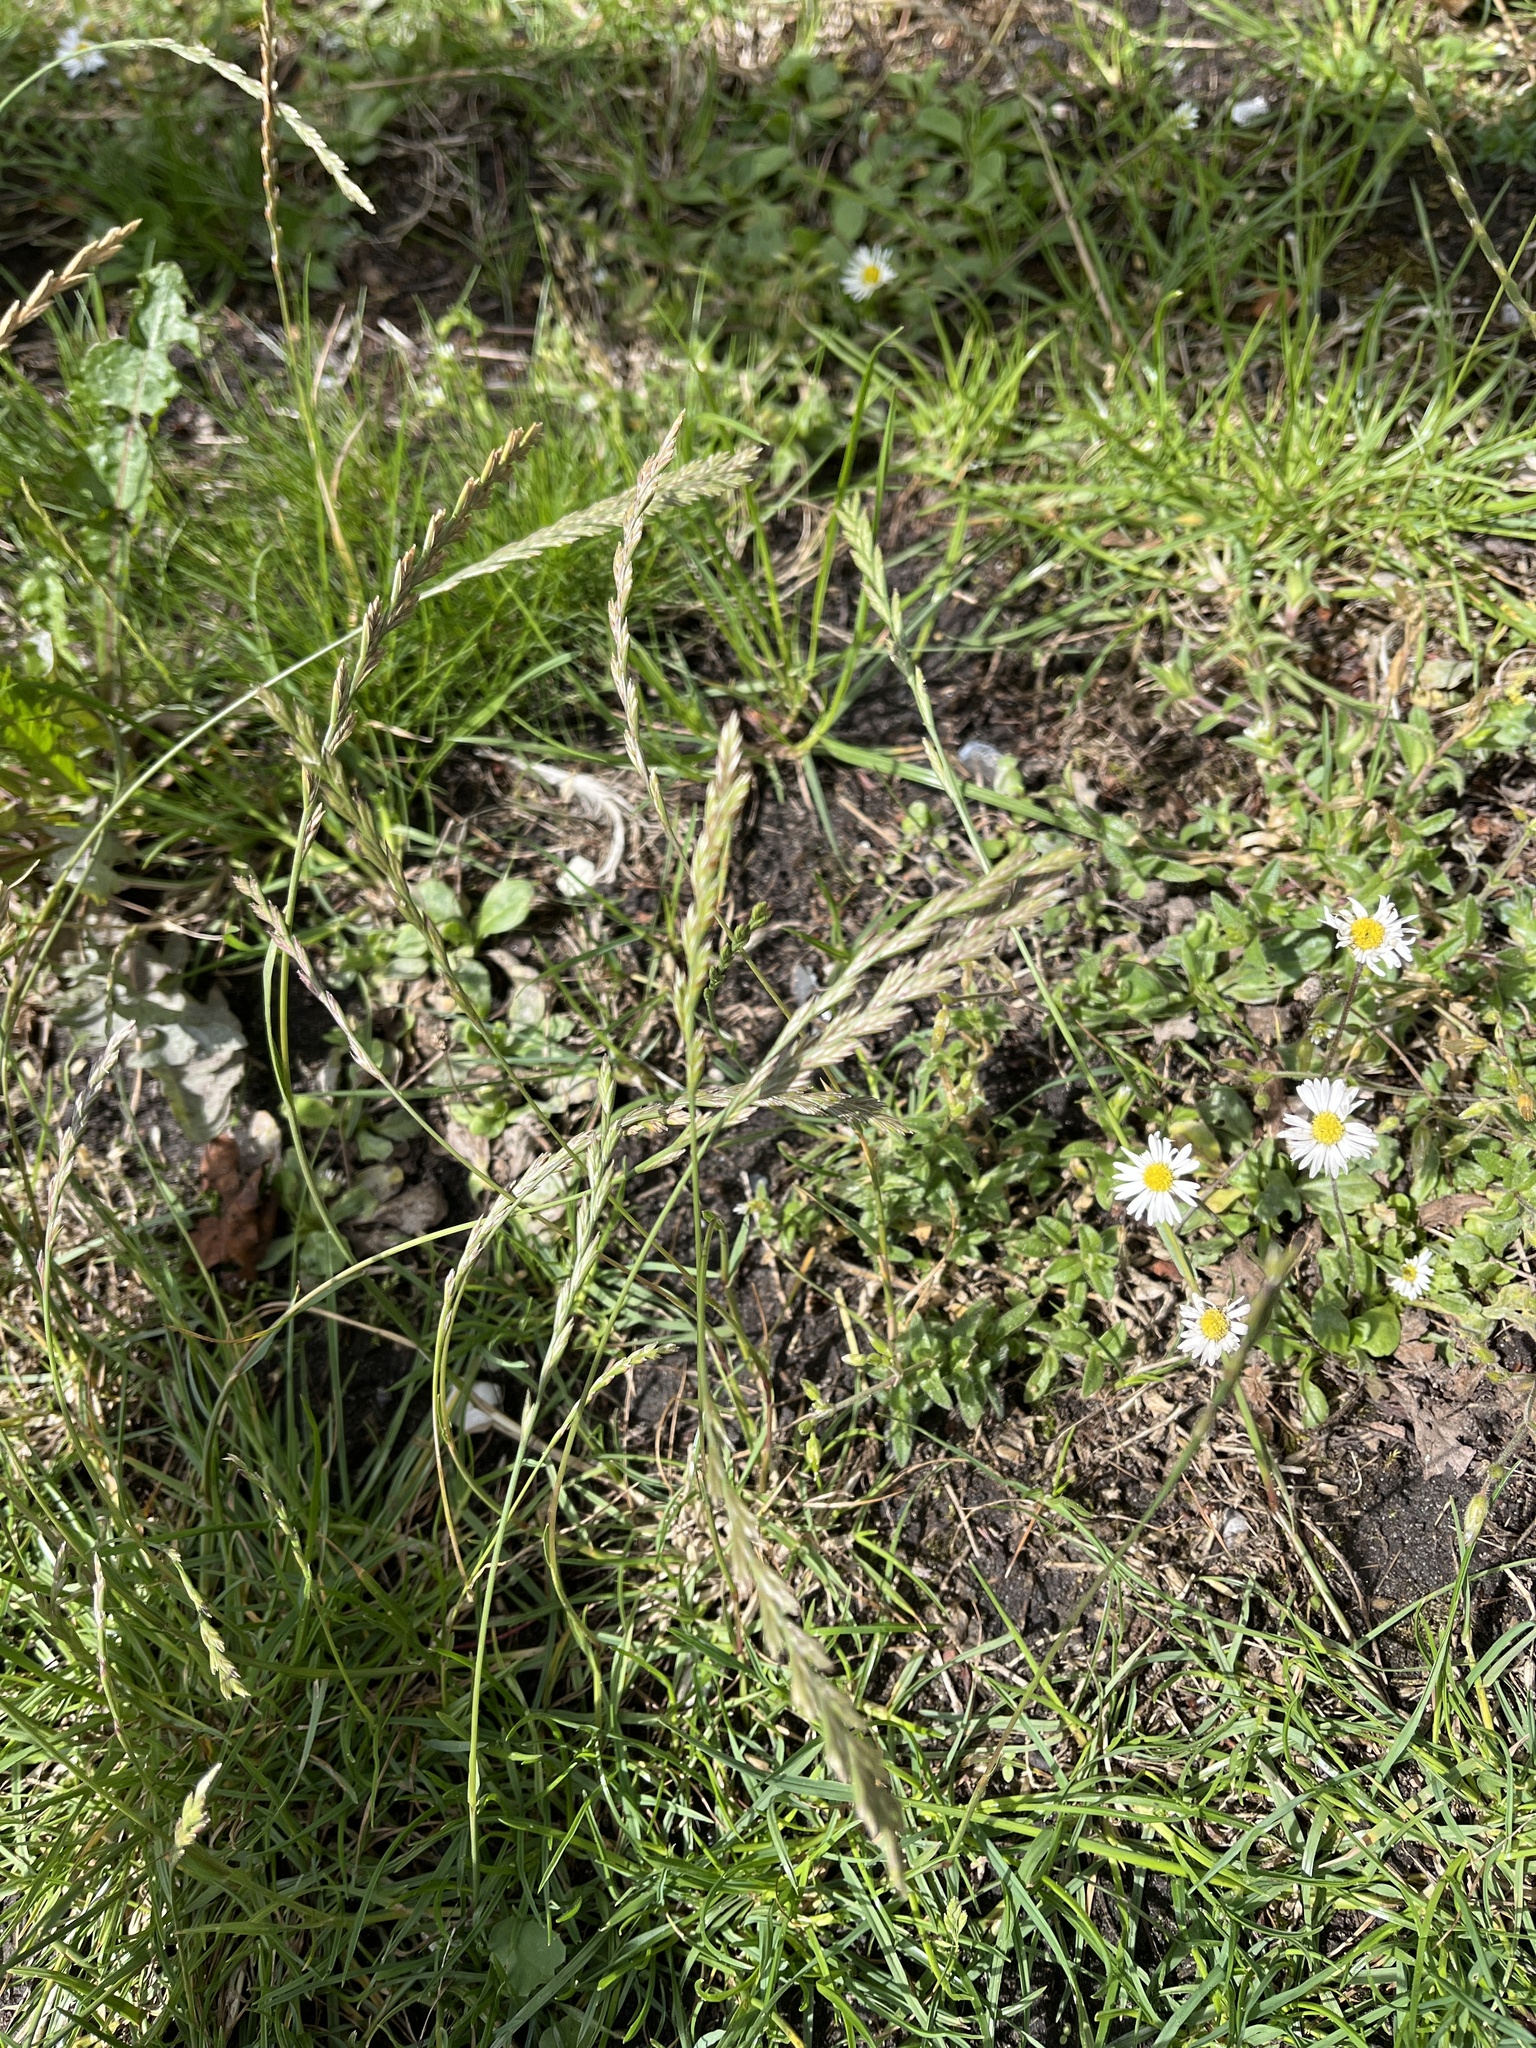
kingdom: Plantae
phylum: Tracheophyta
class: Liliopsida
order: Poales
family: Poaceae
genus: Lolium
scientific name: Lolium perenne
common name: Perennial ryegrass
